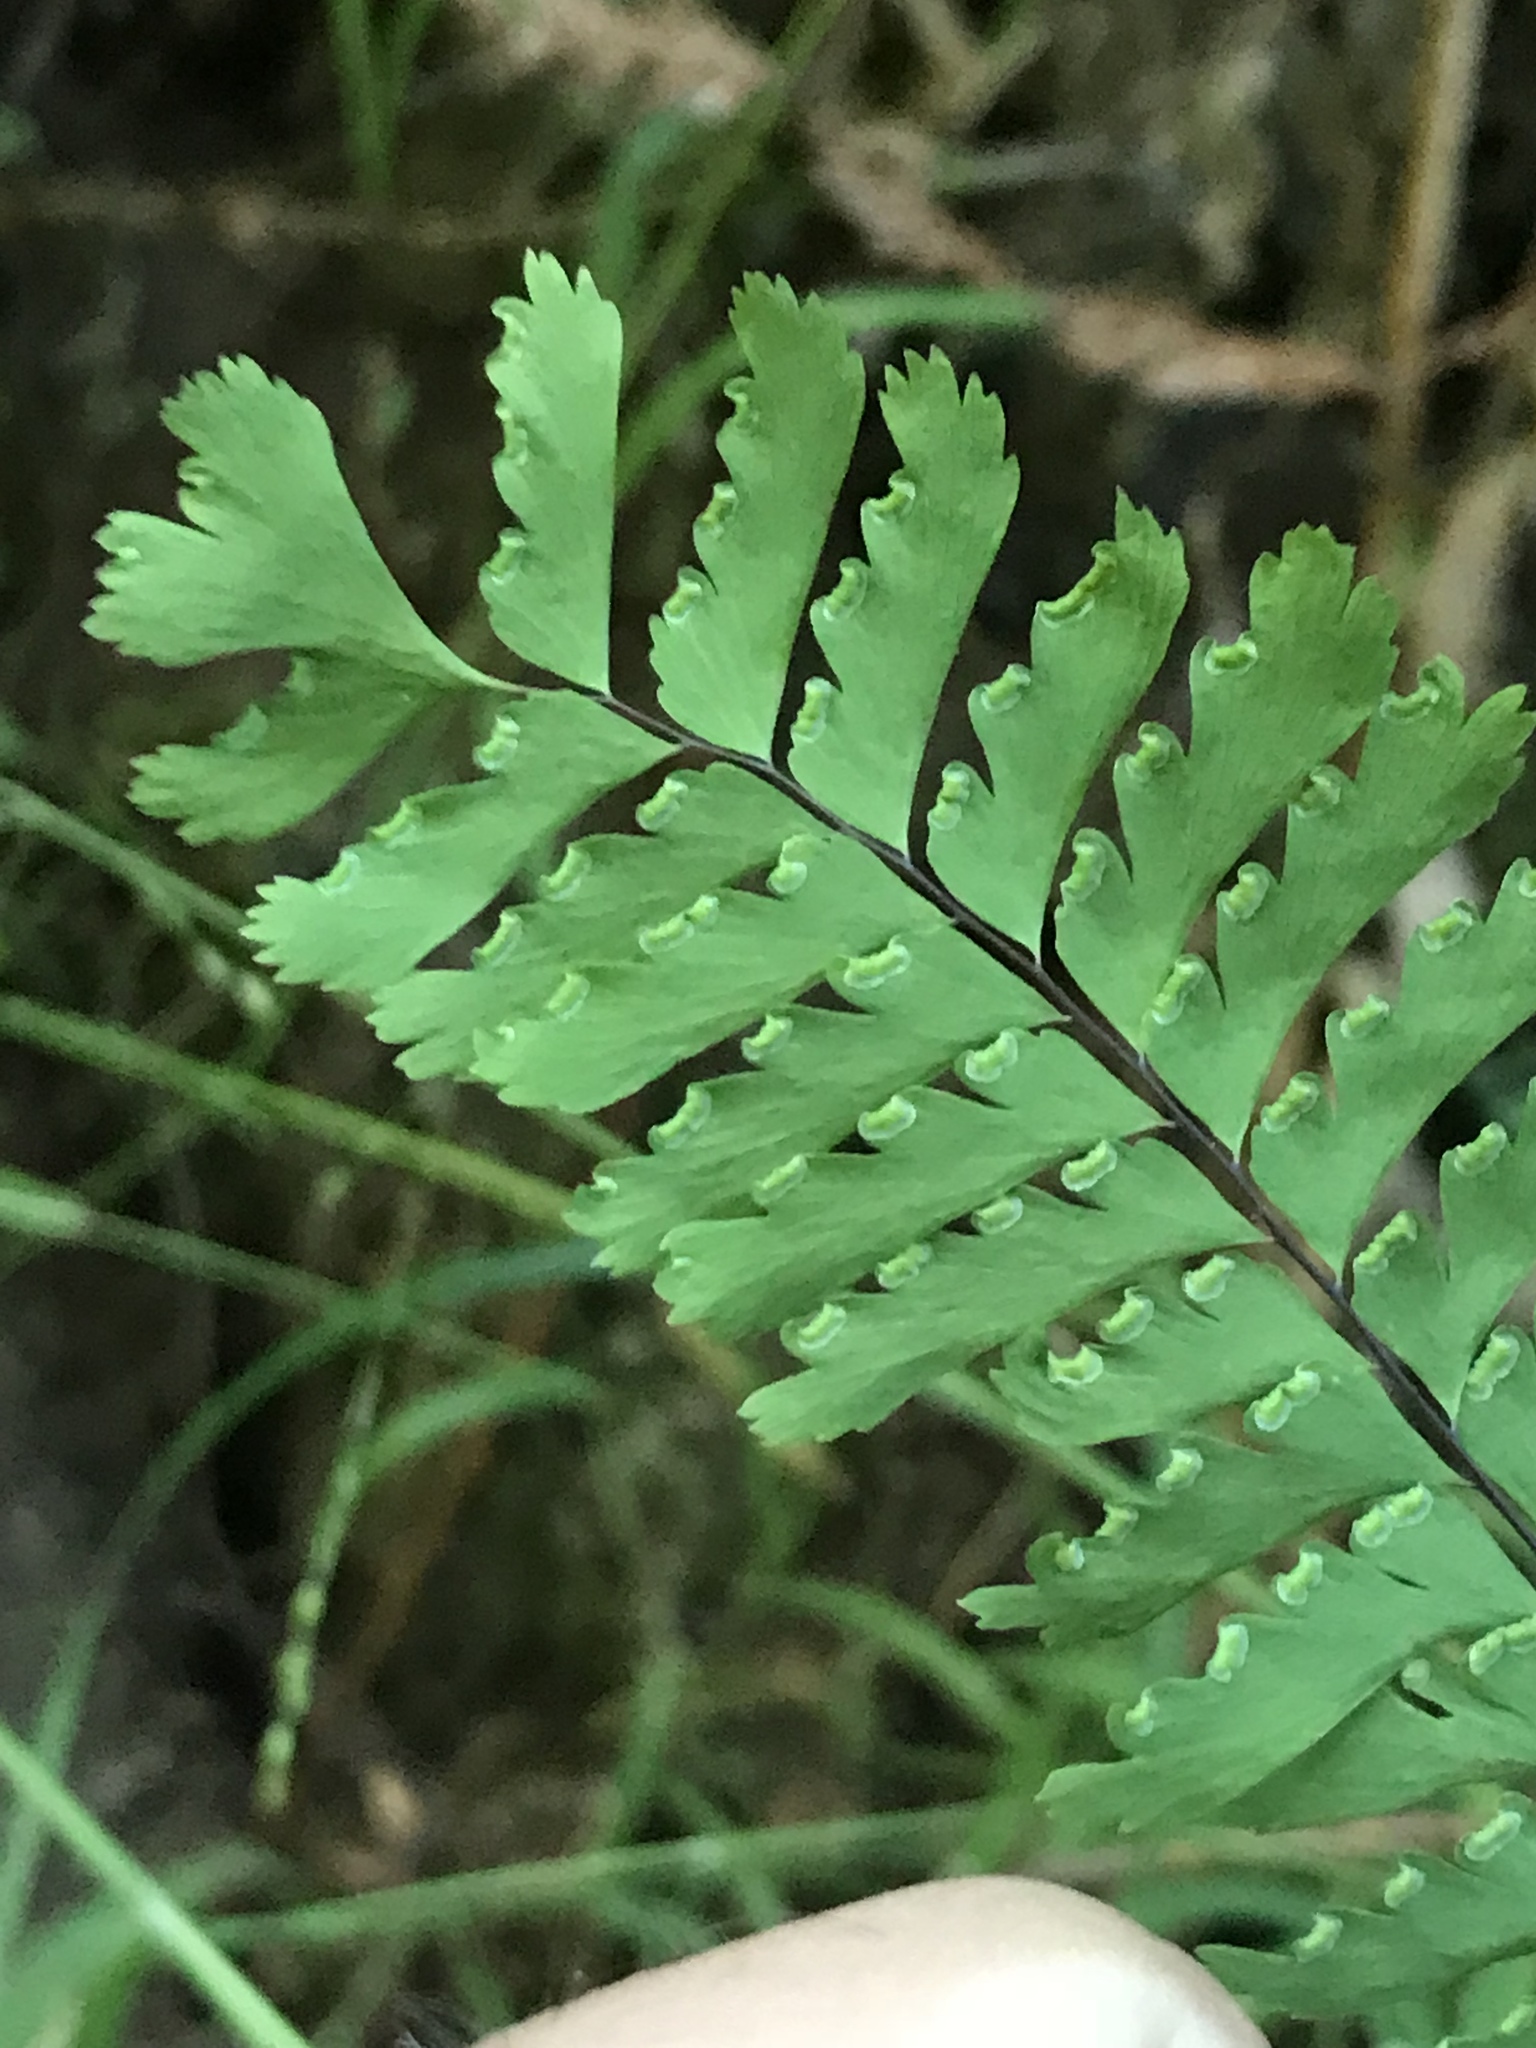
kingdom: Plantae
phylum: Tracheophyta
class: Polypodiopsida
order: Polypodiales
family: Pteridaceae
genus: Adiantum
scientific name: Adiantum aleuticum
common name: Aleutian maidenhair fern
